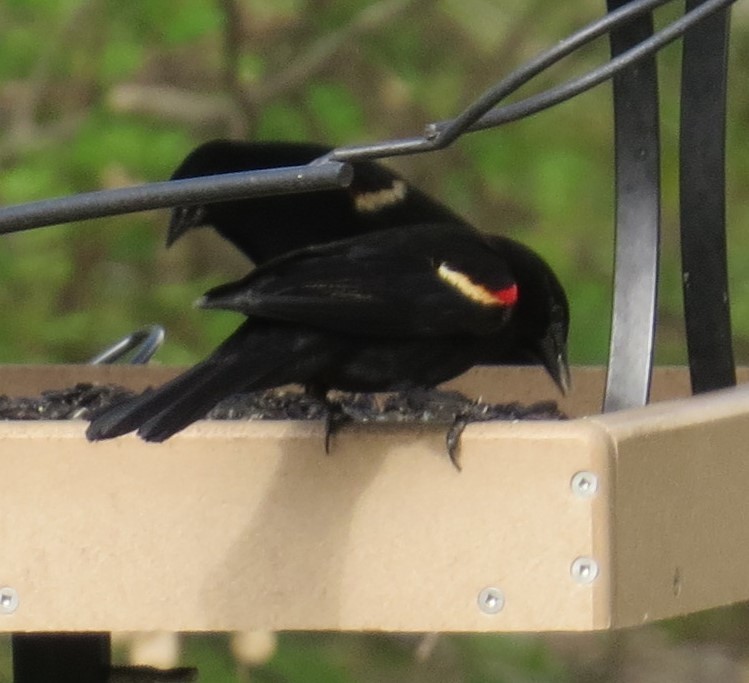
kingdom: Animalia
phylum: Chordata
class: Aves
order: Passeriformes
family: Icteridae
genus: Agelaius
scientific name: Agelaius phoeniceus
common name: Red-winged blackbird
